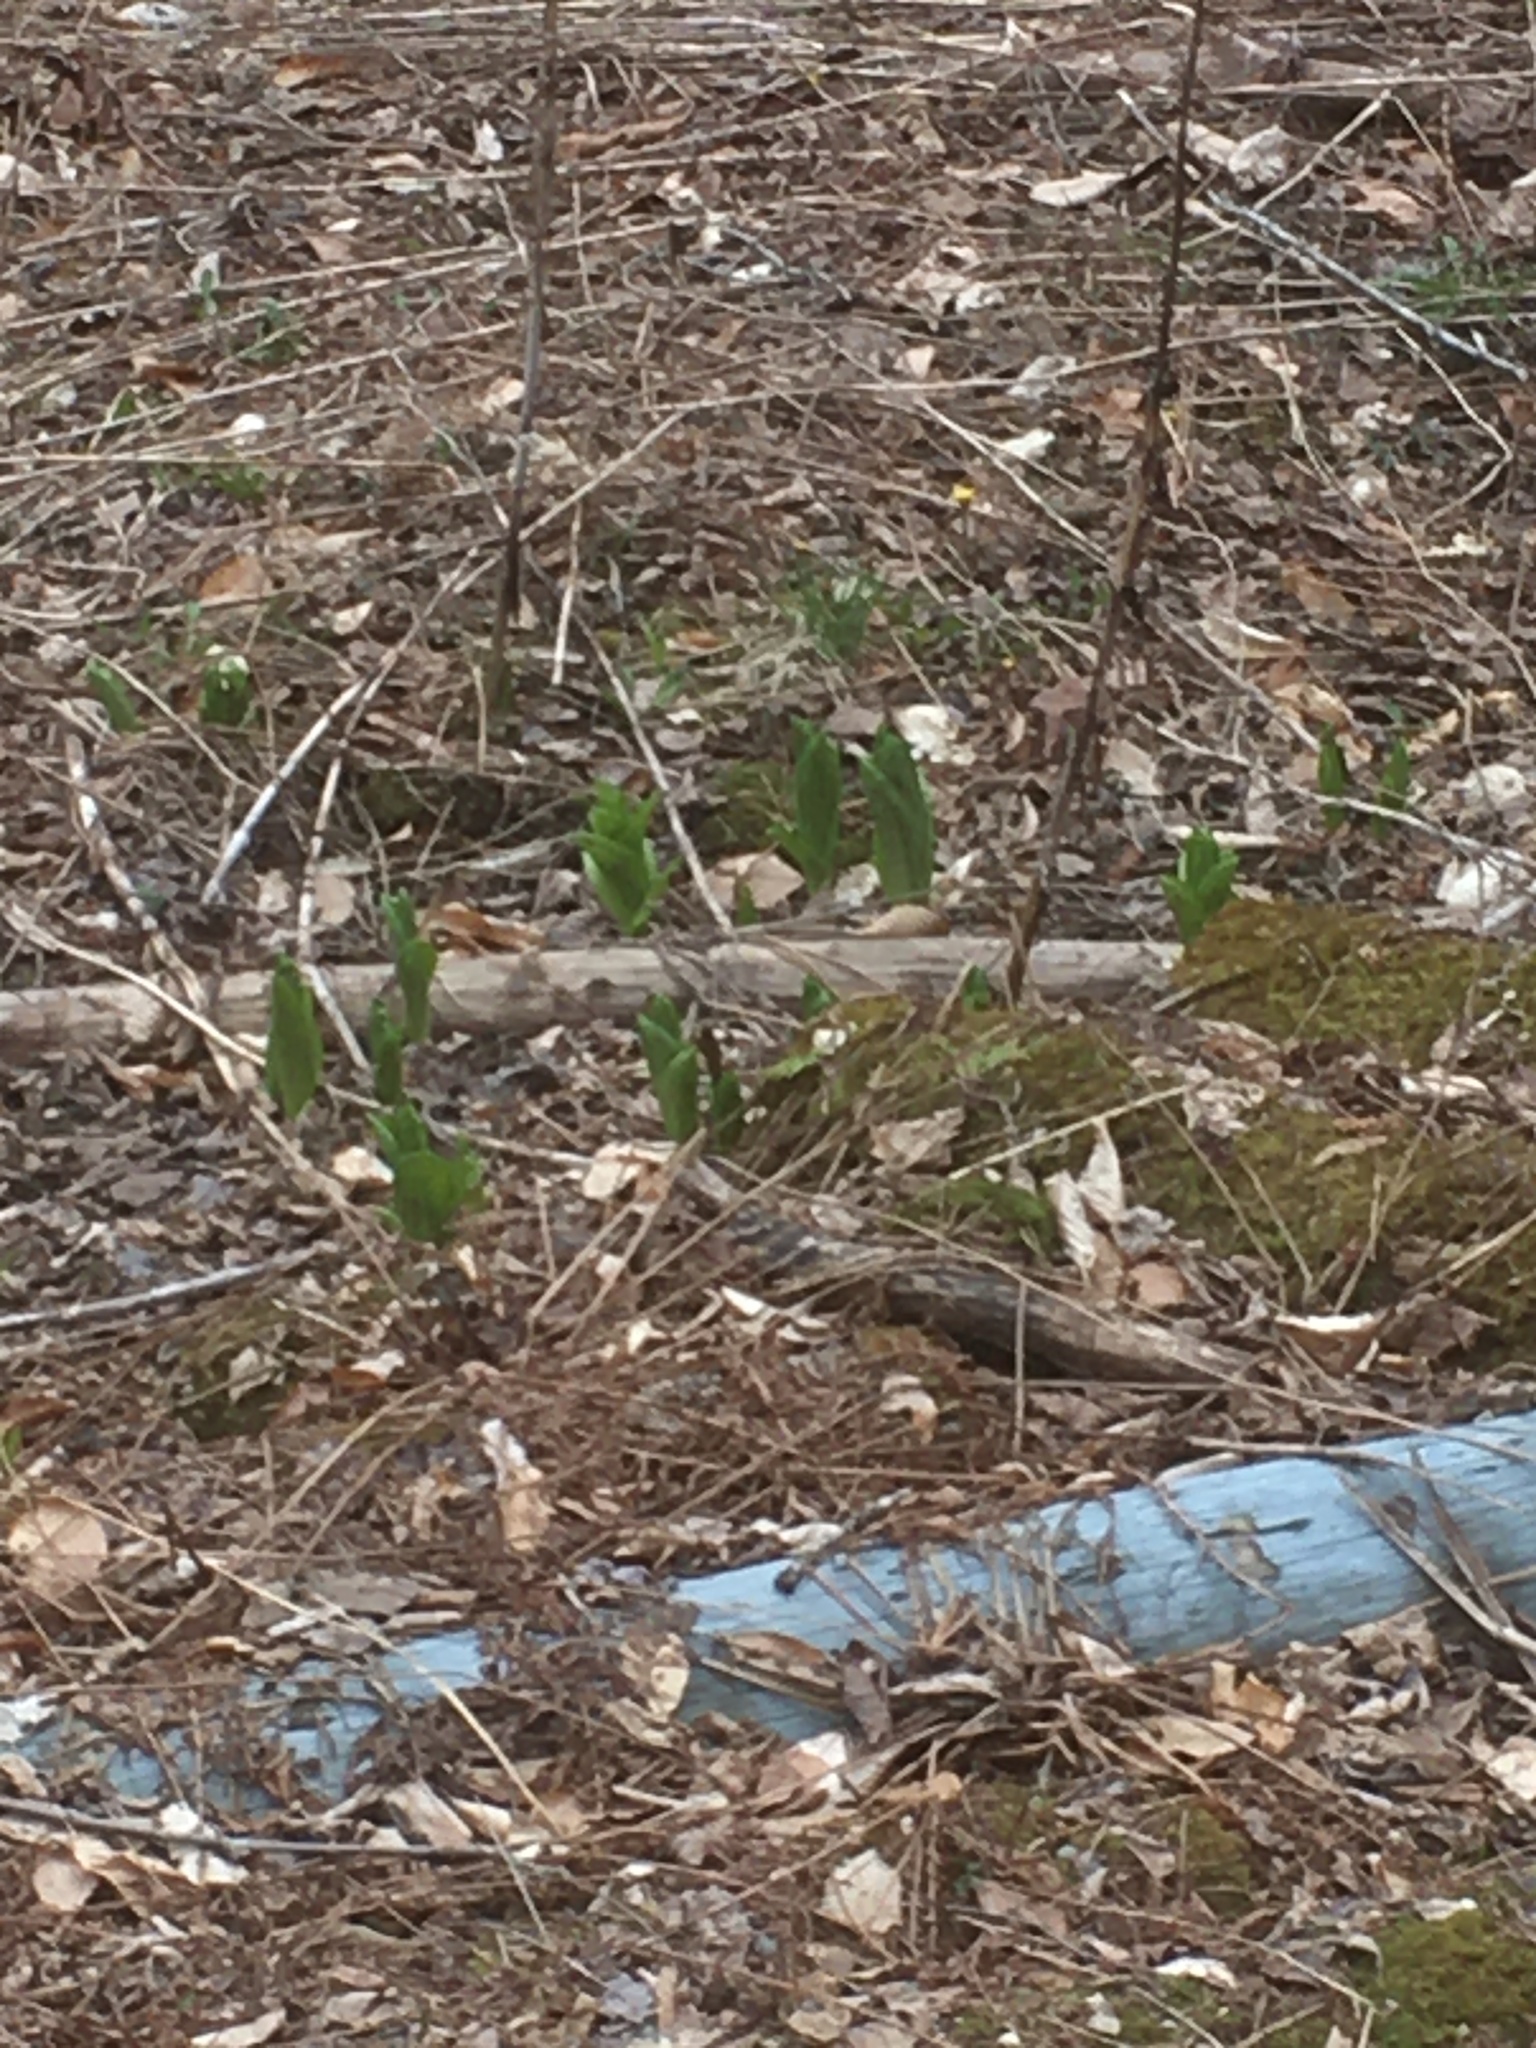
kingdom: Plantae
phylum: Tracheophyta
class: Liliopsida
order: Liliales
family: Melanthiaceae
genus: Veratrum
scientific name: Veratrum viride
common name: American false hellebore
